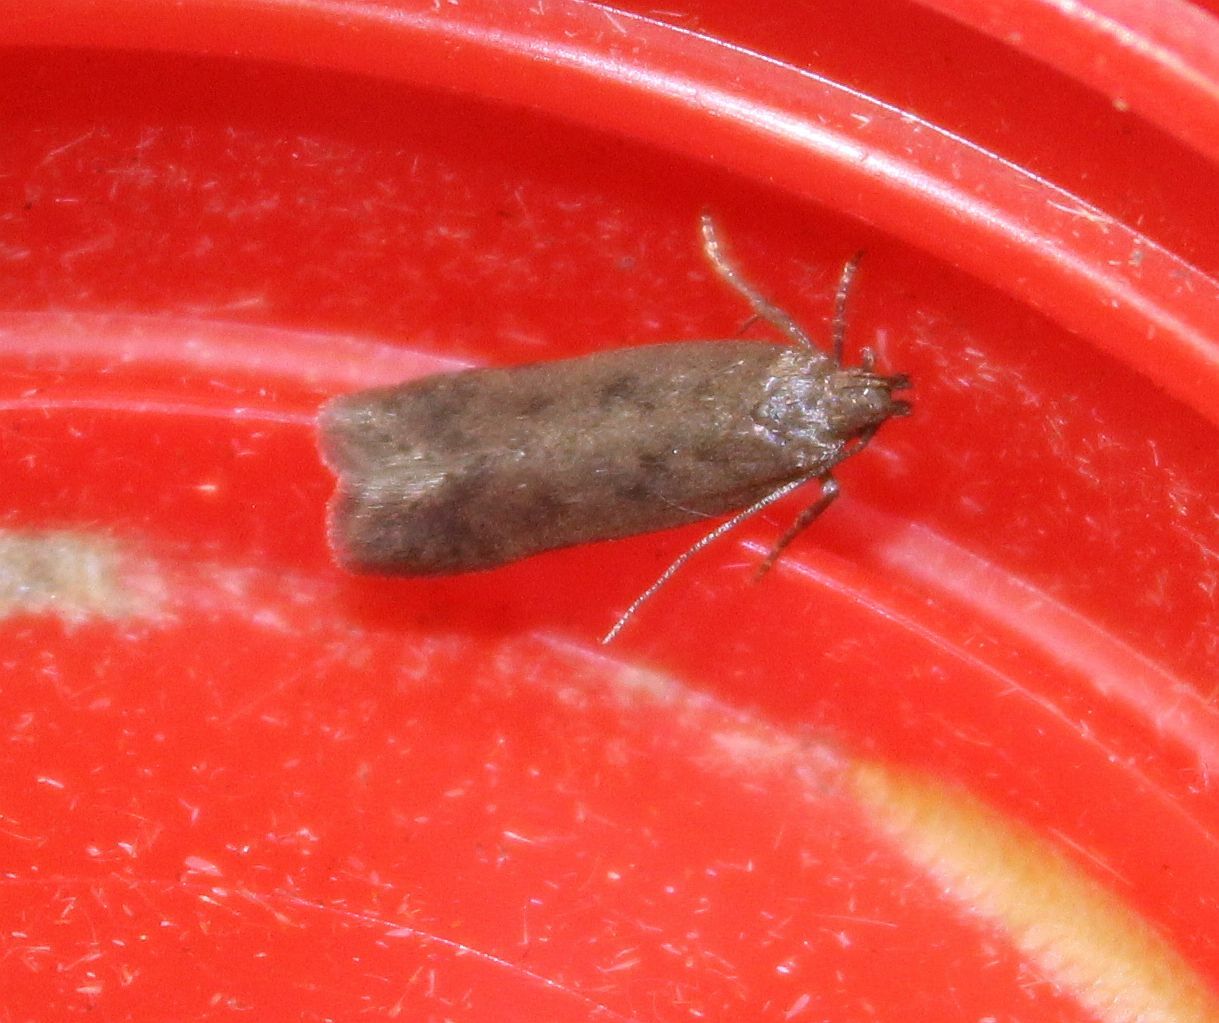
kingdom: Animalia
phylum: Arthropoda
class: Insecta
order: Lepidoptera
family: Gelechiidae
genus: Bryotropha
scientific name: Bryotropha terrella
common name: Cinerous groundling
